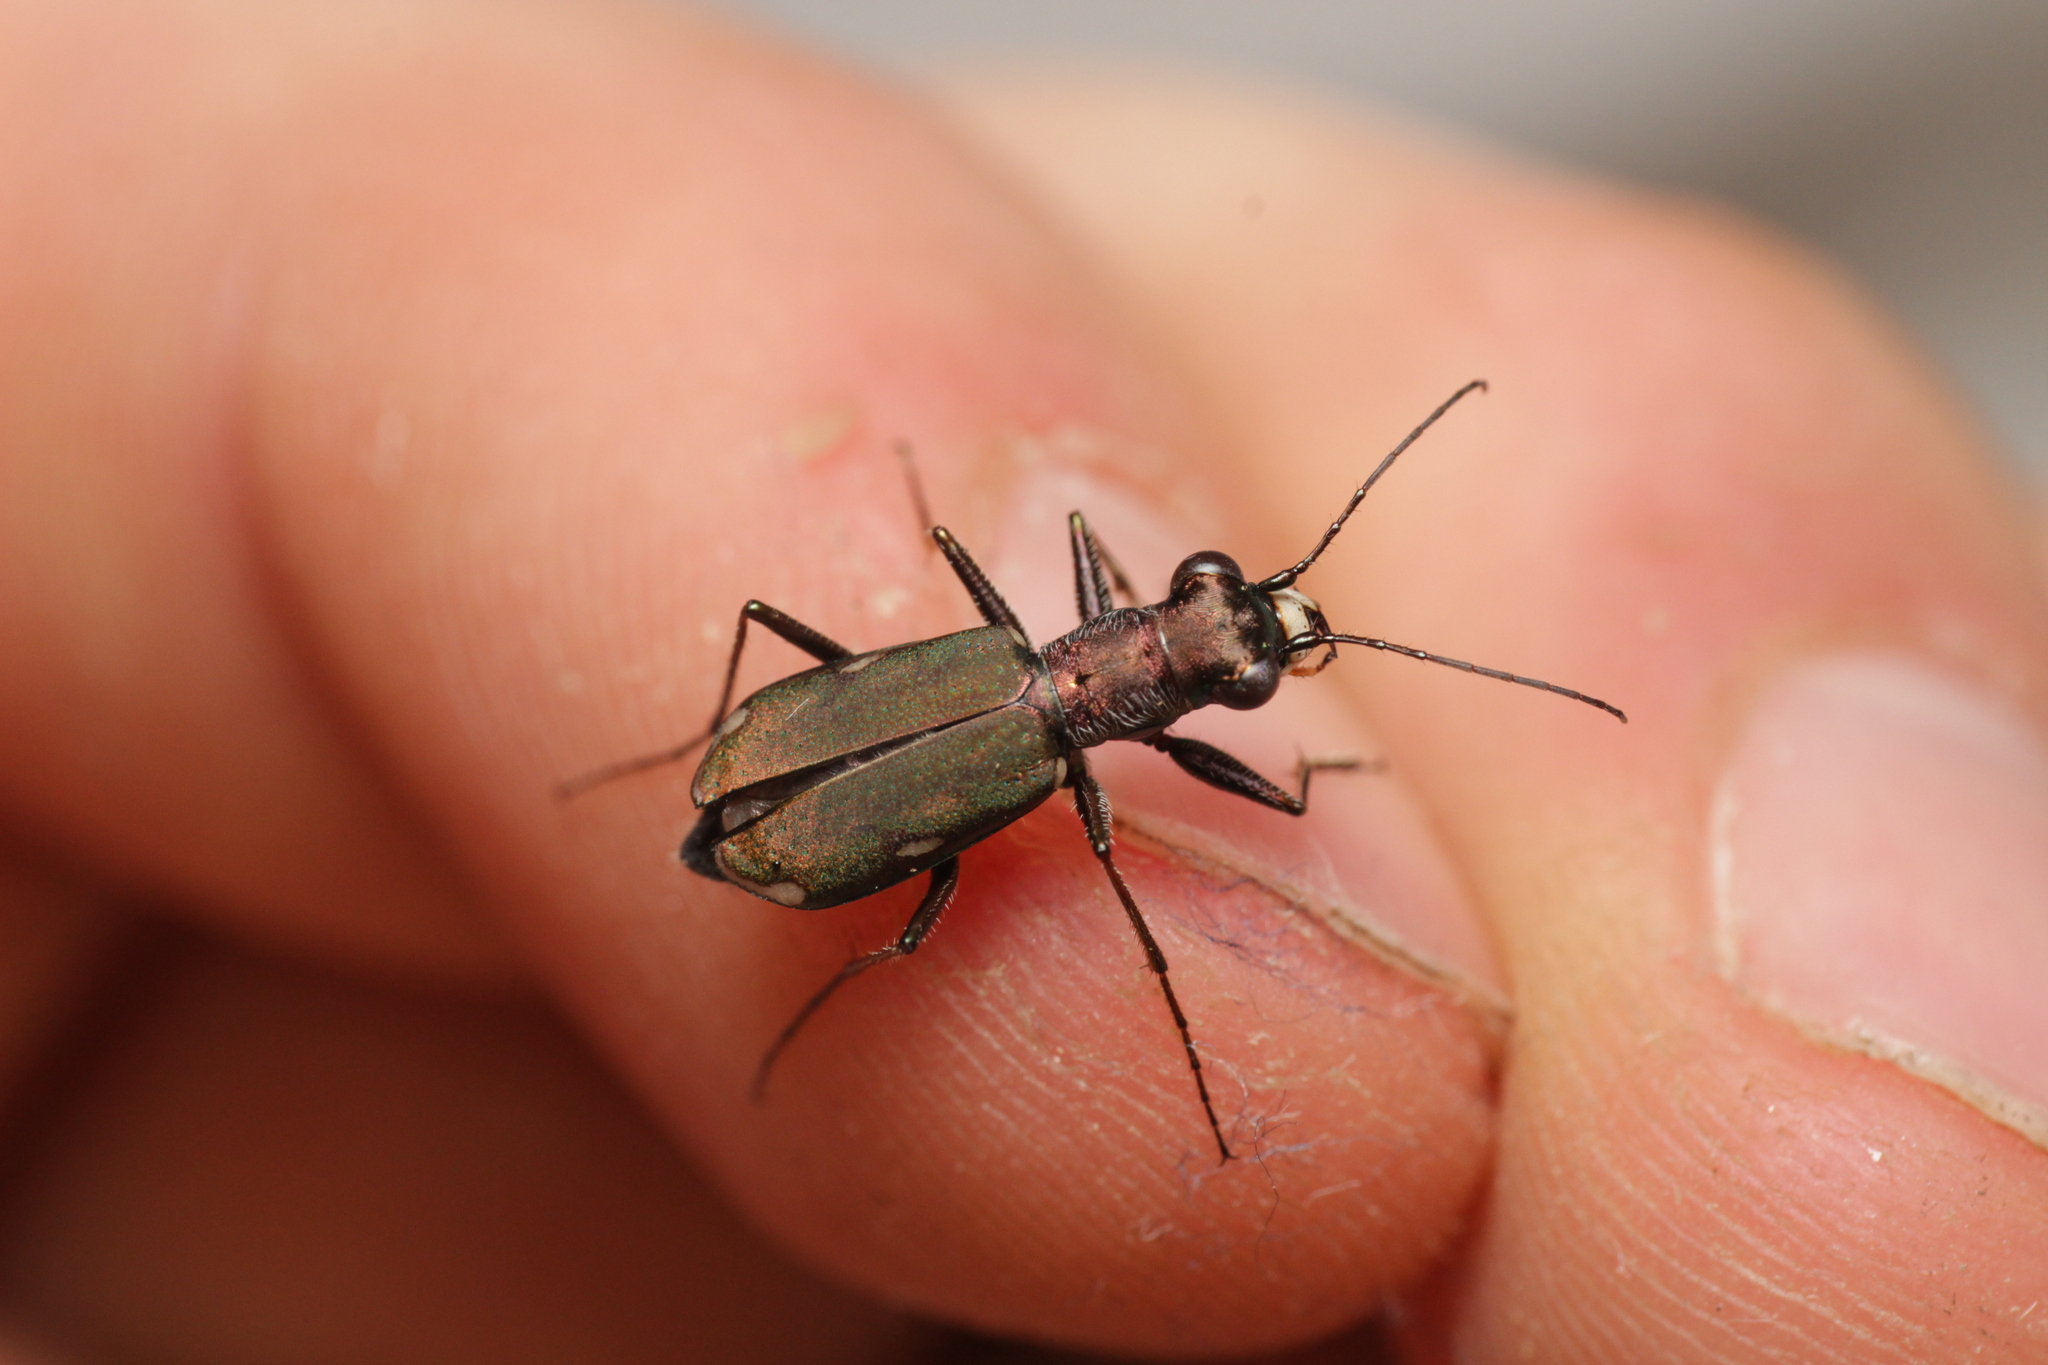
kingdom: Animalia
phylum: Arthropoda
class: Insecta
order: Coleoptera
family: Carabidae
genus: Cylindera
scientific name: Cylindera germanica
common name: Cliff tiger beetle
